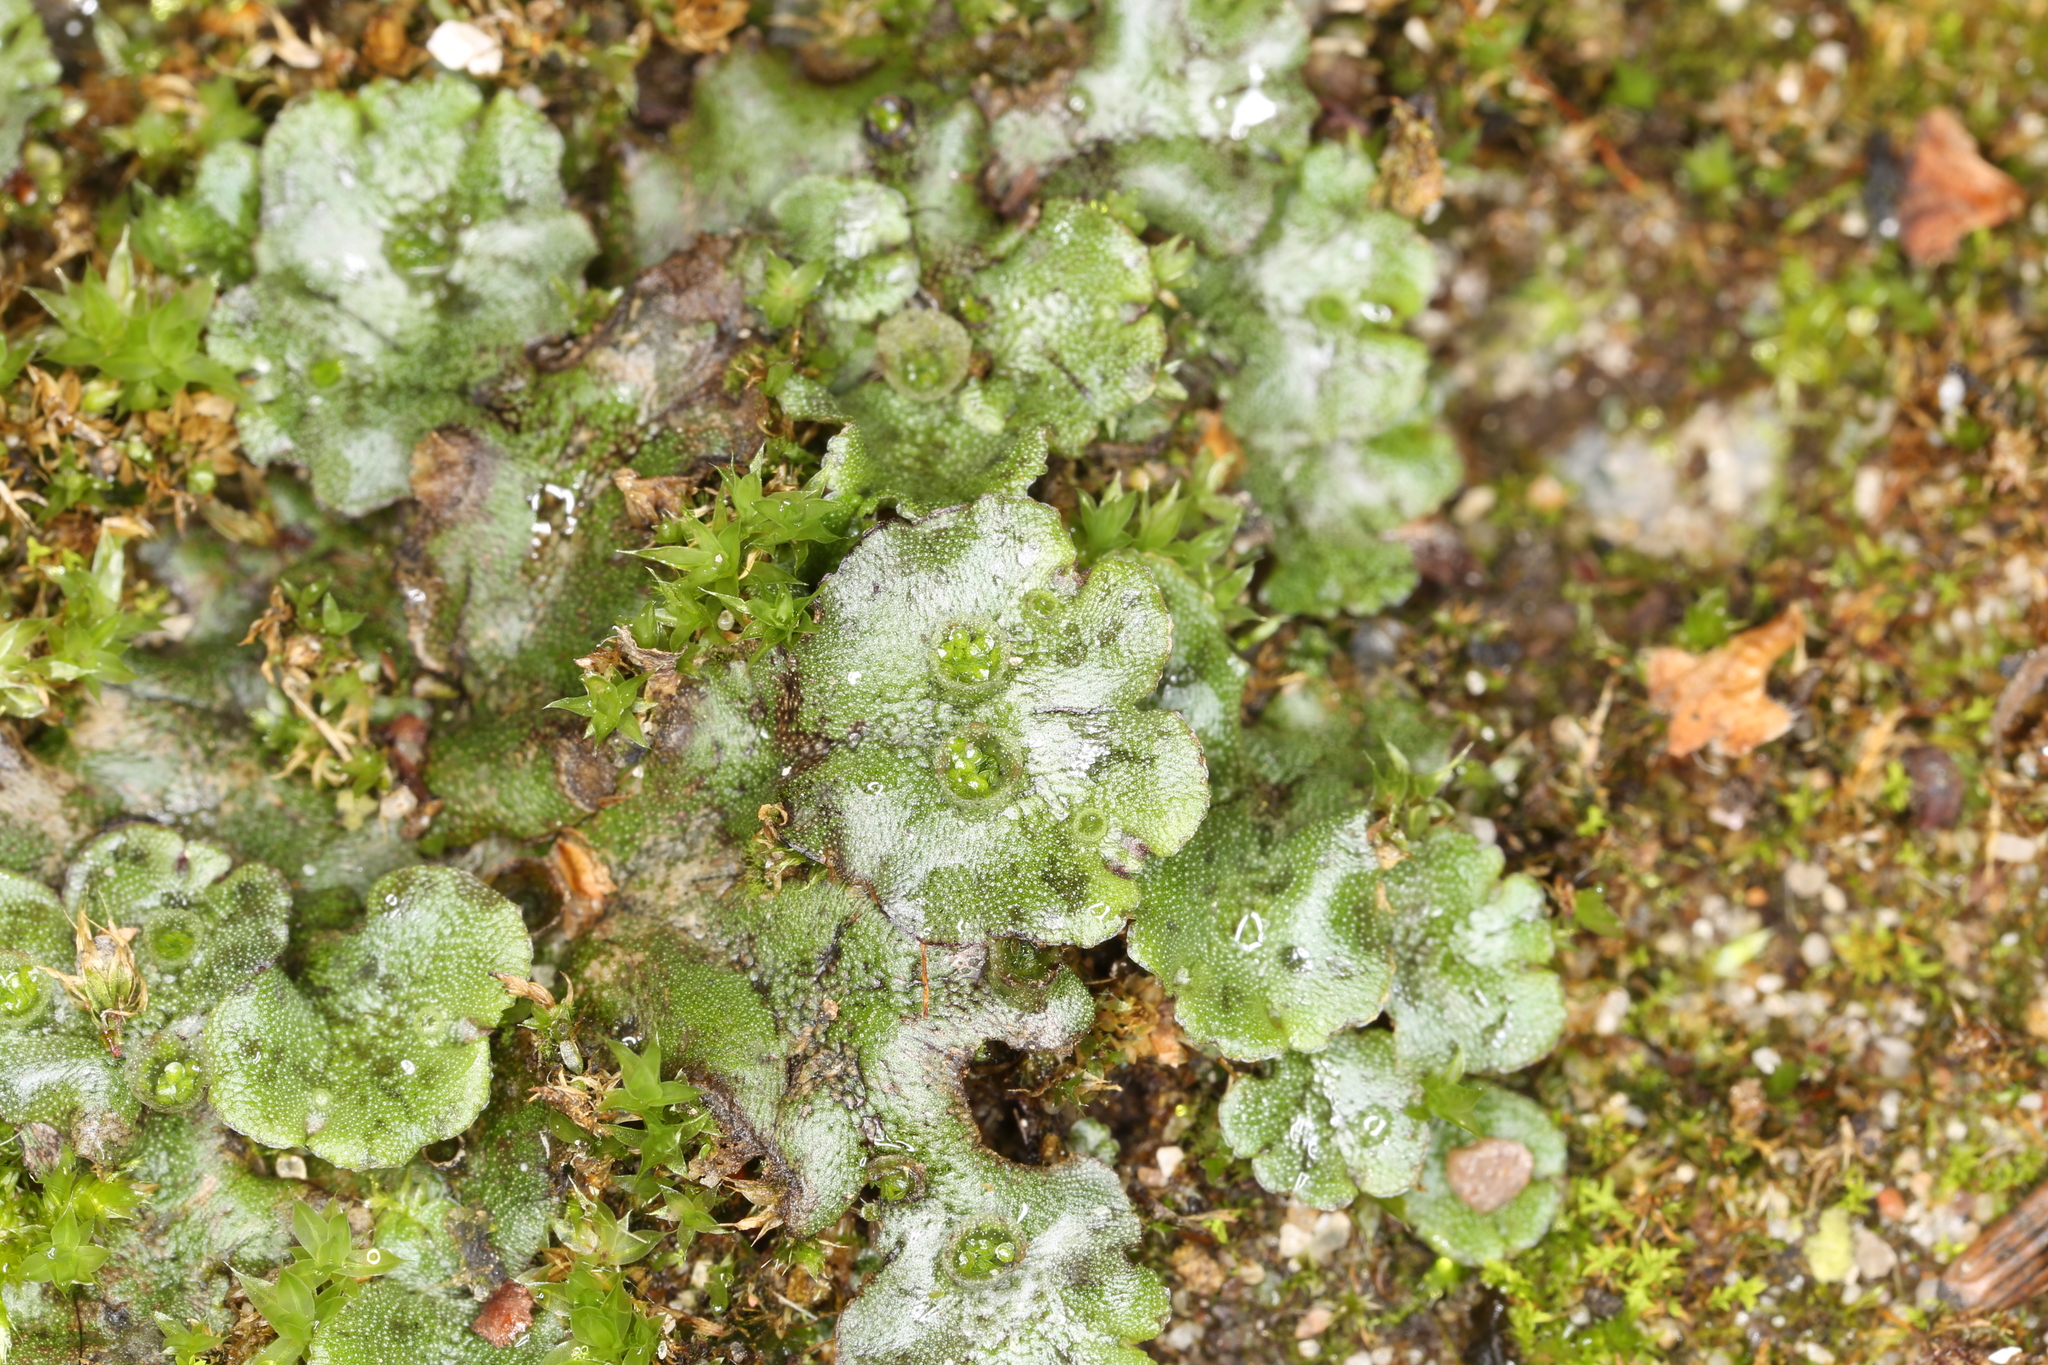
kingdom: Plantae
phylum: Marchantiophyta
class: Marchantiopsida
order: Marchantiales
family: Marchantiaceae
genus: Marchantia
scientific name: Marchantia polymorpha
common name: Common liverwort
